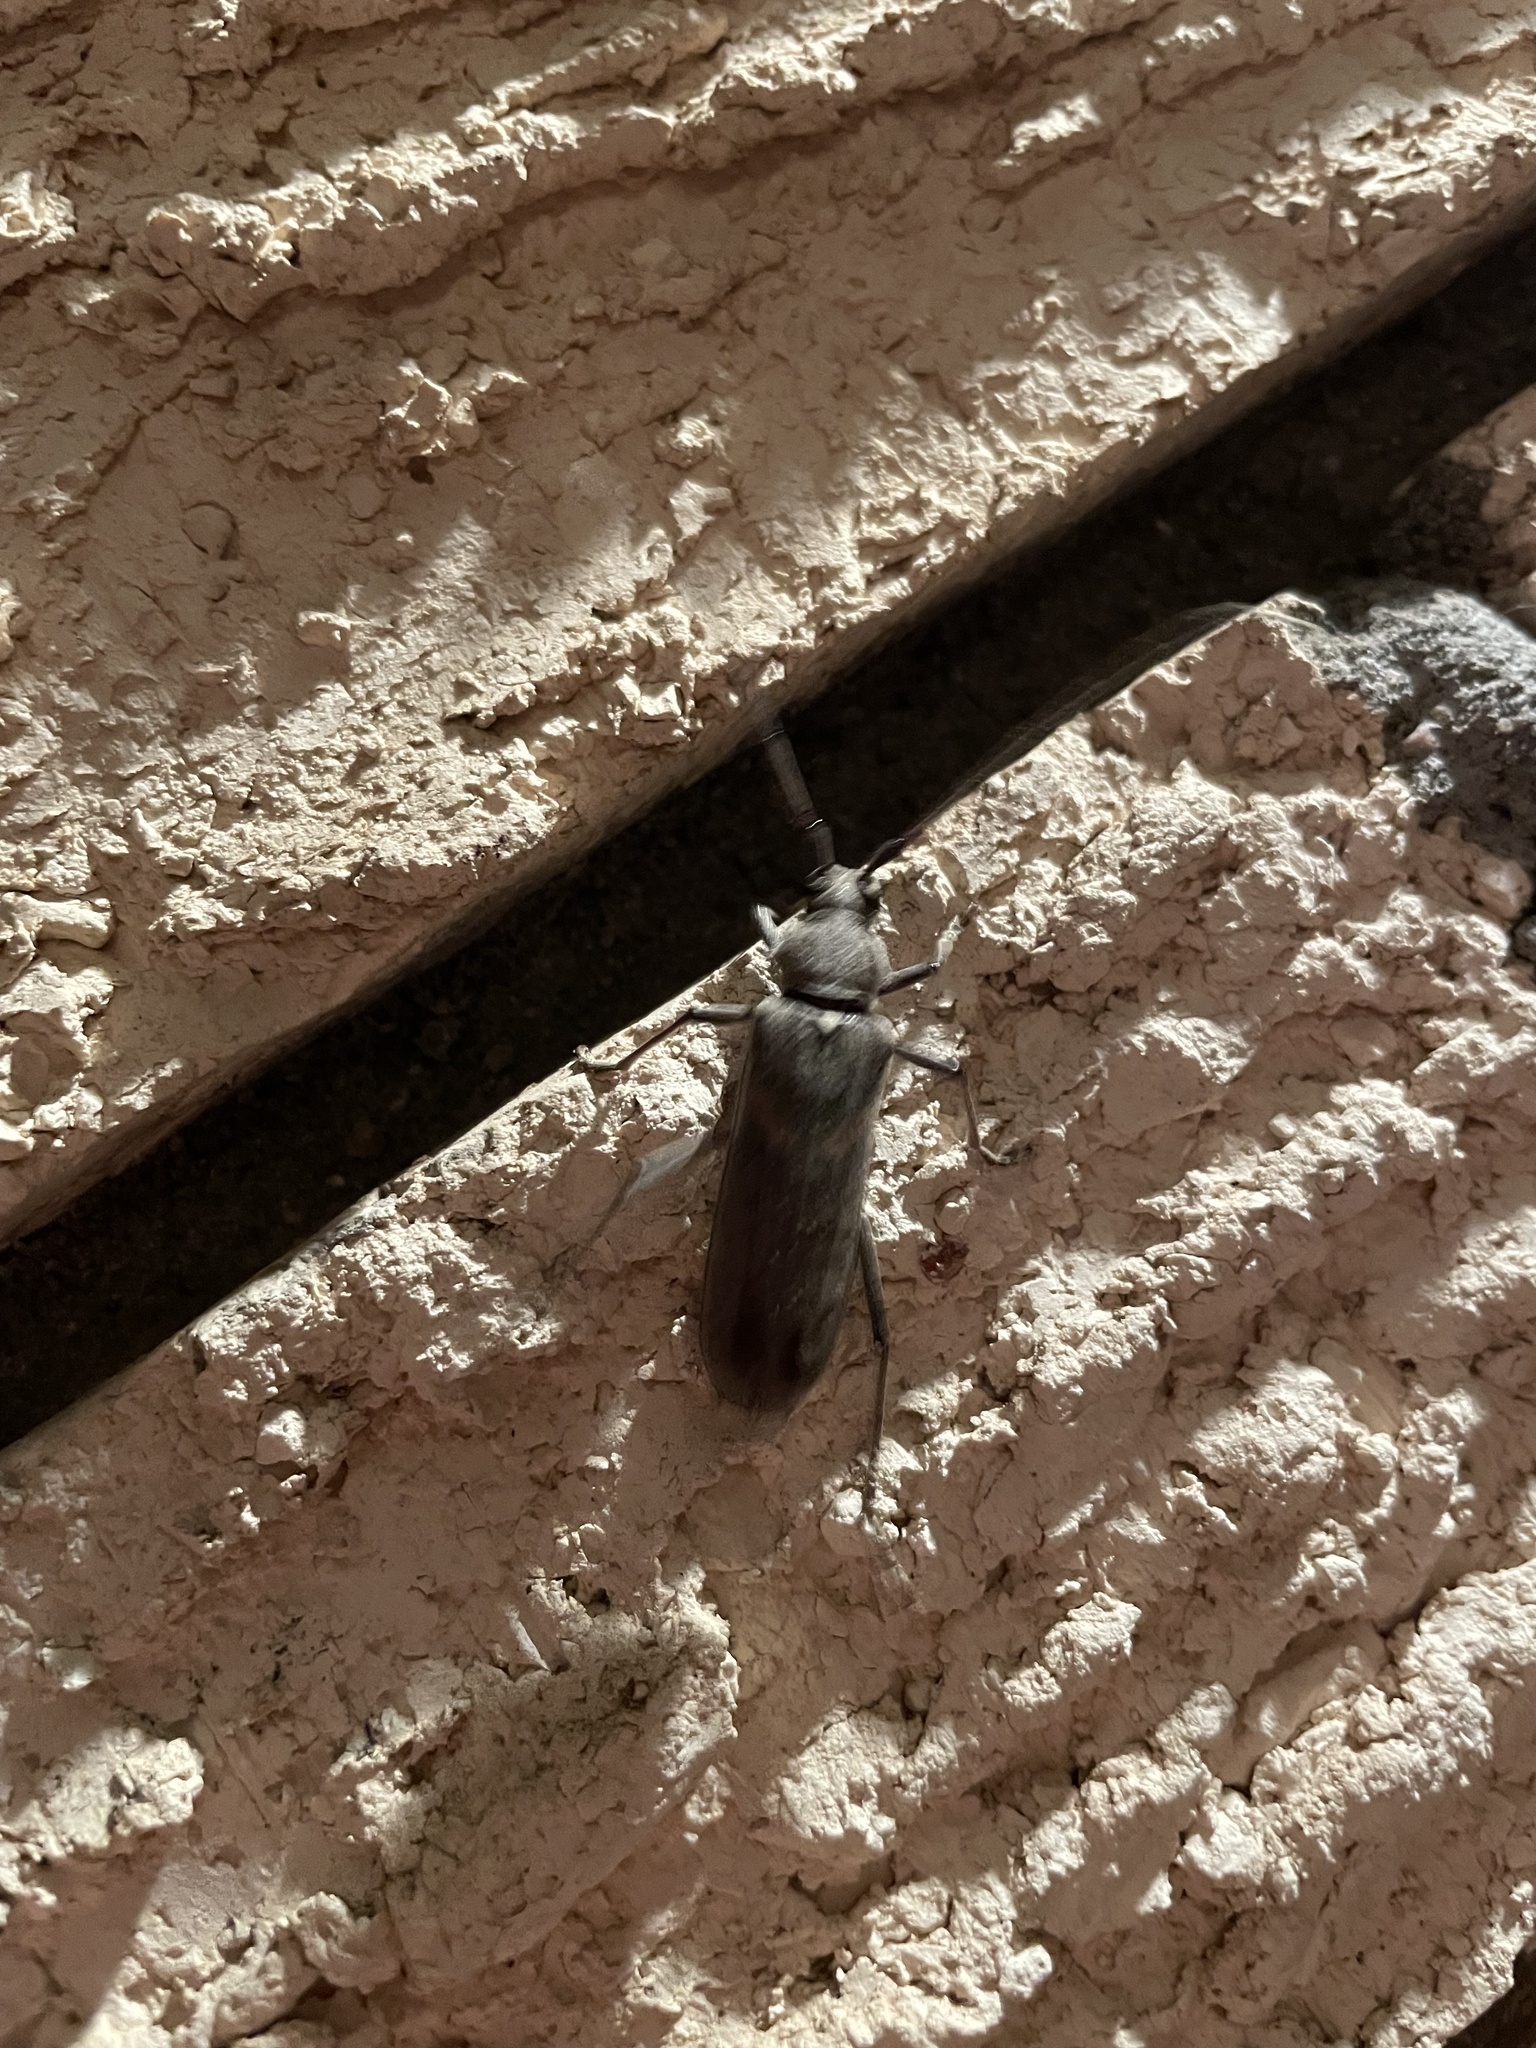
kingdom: Animalia
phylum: Arthropoda
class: Insecta
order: Coleoptera
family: Cerambycidae
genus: Knulliana
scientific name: Knulliana cincta
